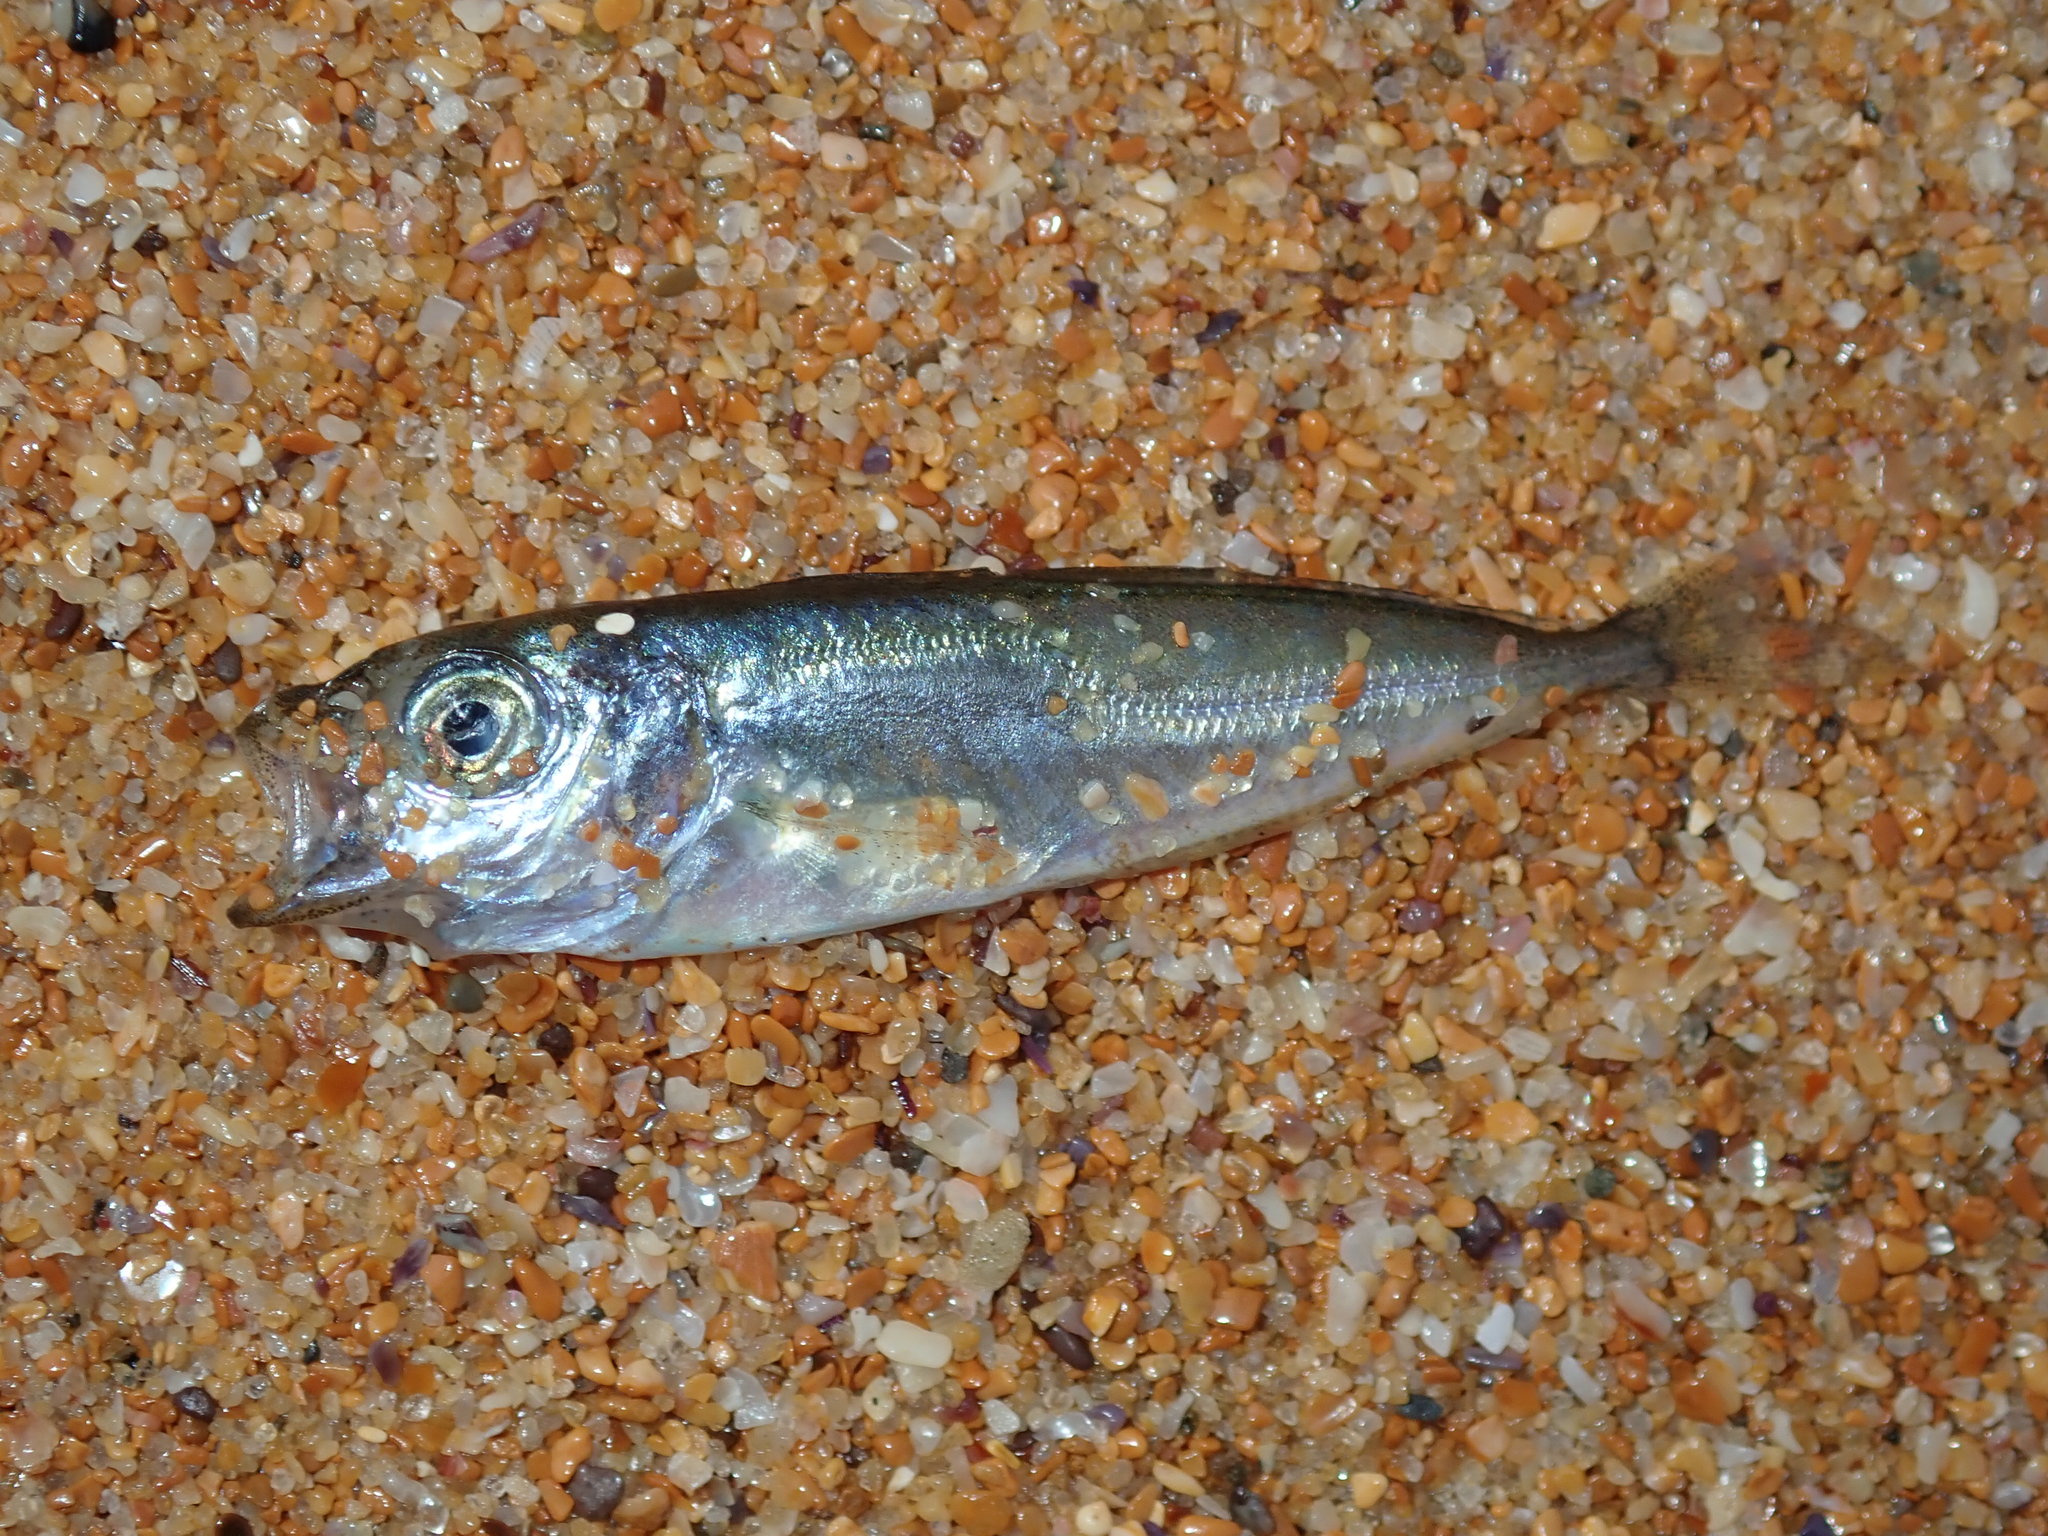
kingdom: Animalia
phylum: Chordata
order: Perciformes
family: Carangidae
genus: Trachurus
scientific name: Trachurus novaezelandiae
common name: Yellowtail horse mackerel
